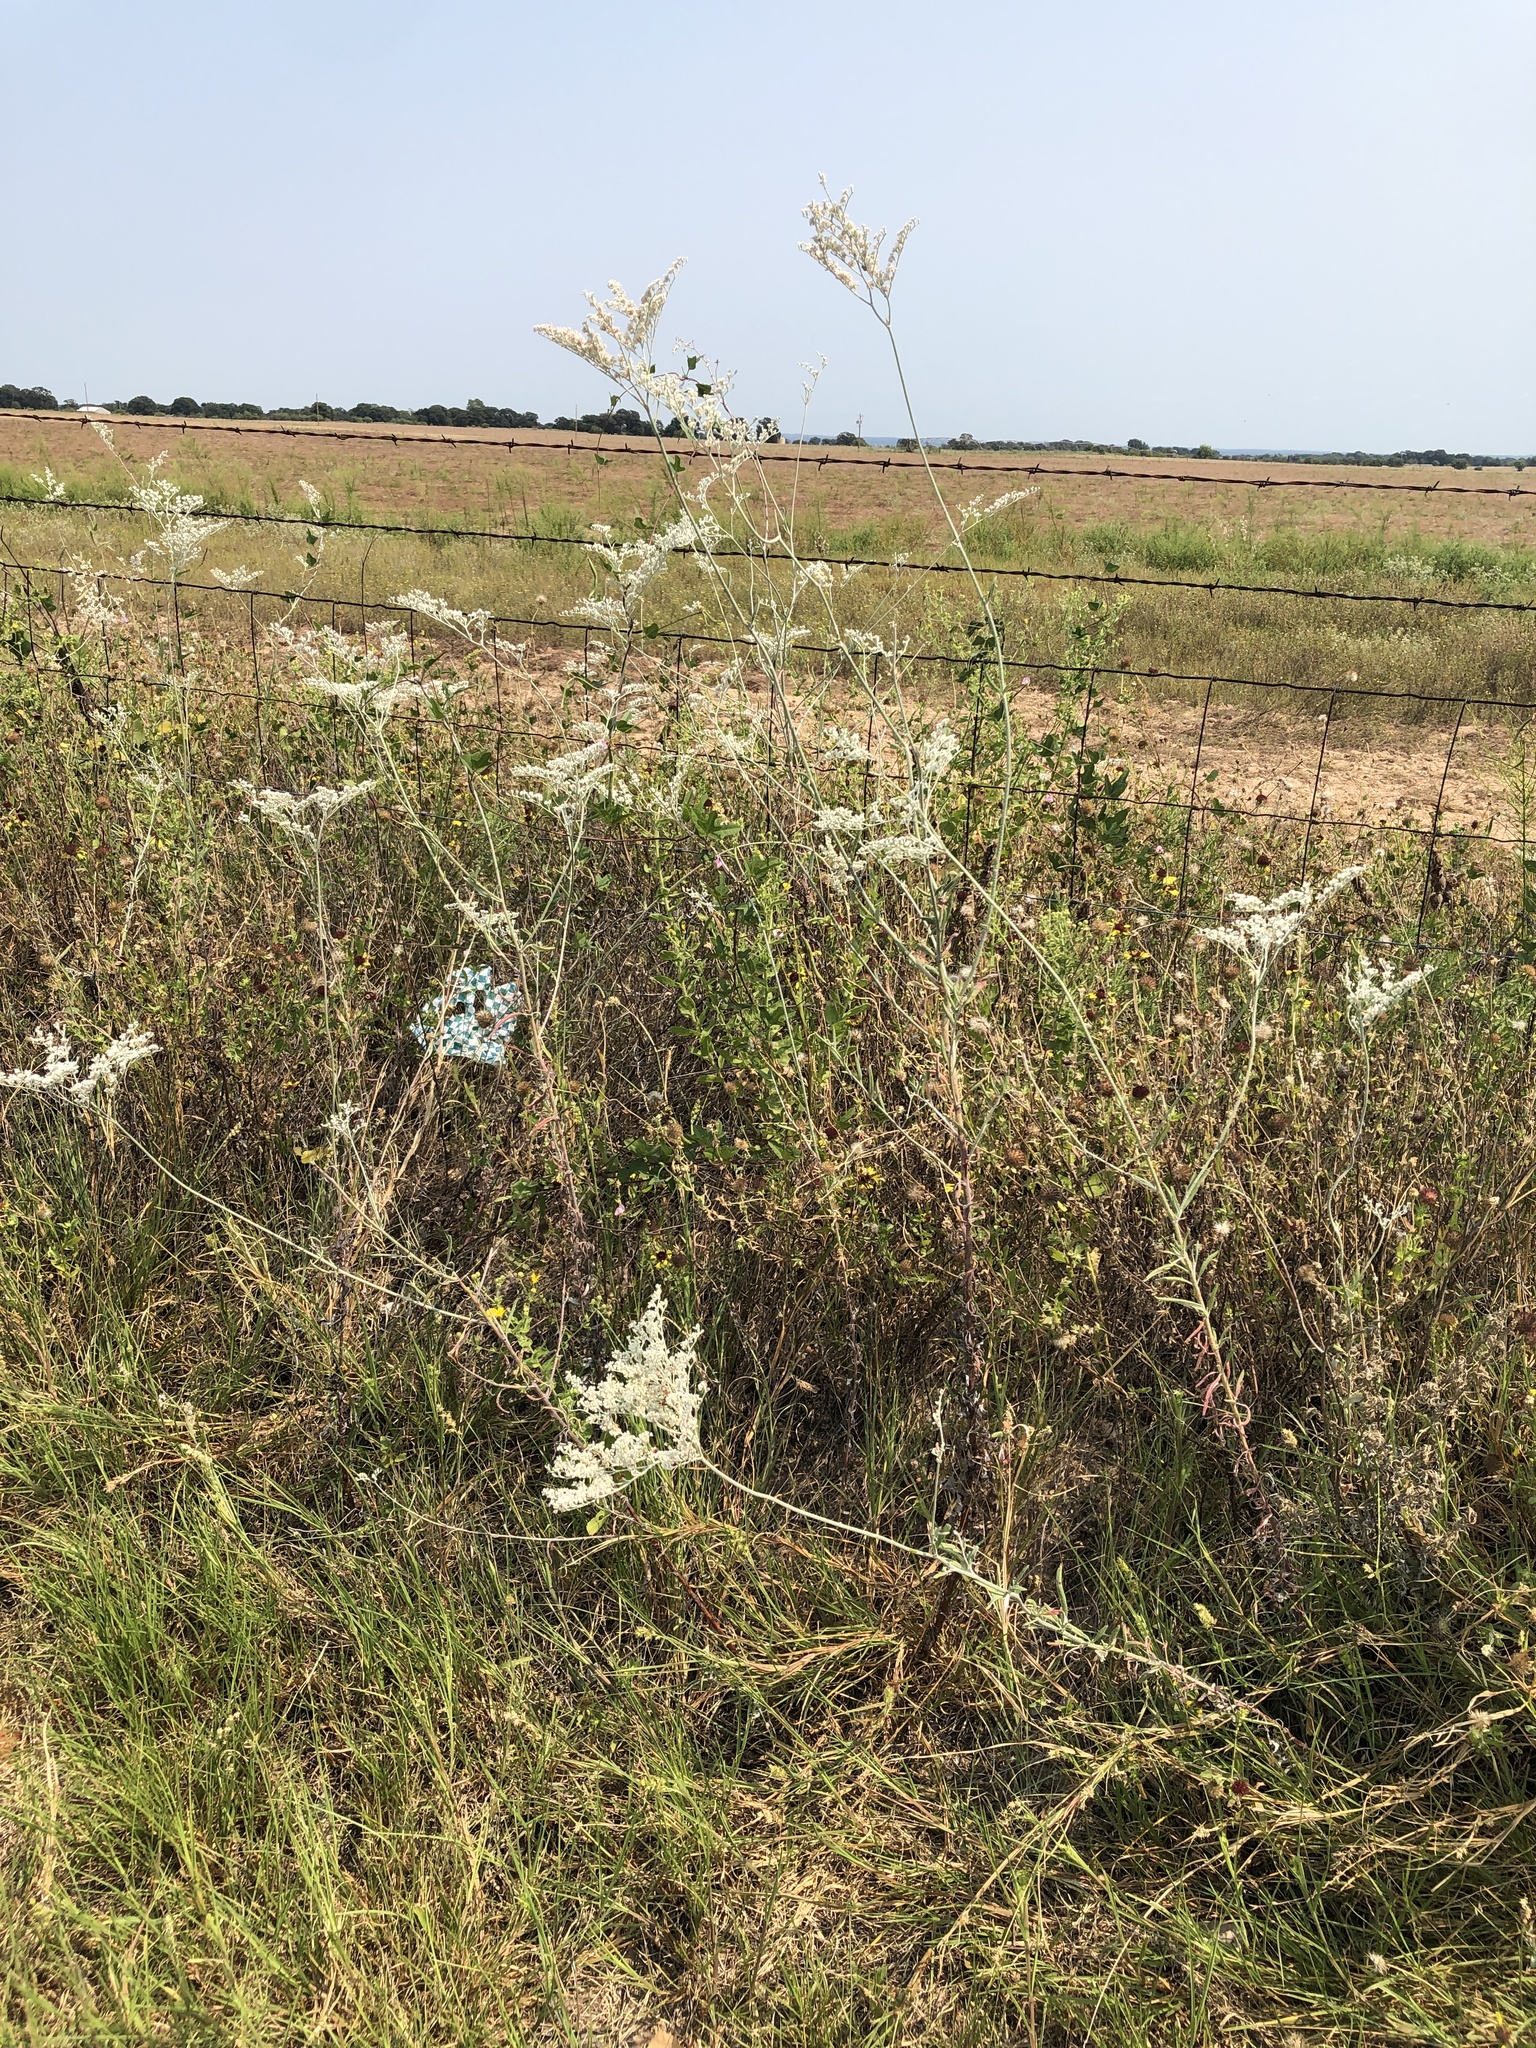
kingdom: Plantae
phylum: Tracheophyta
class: Magnoliopsida
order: Caryophyllales
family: Polygonaceae
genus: Eriogonum
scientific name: Eriogonum annuum
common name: Annual wild buckwheat
